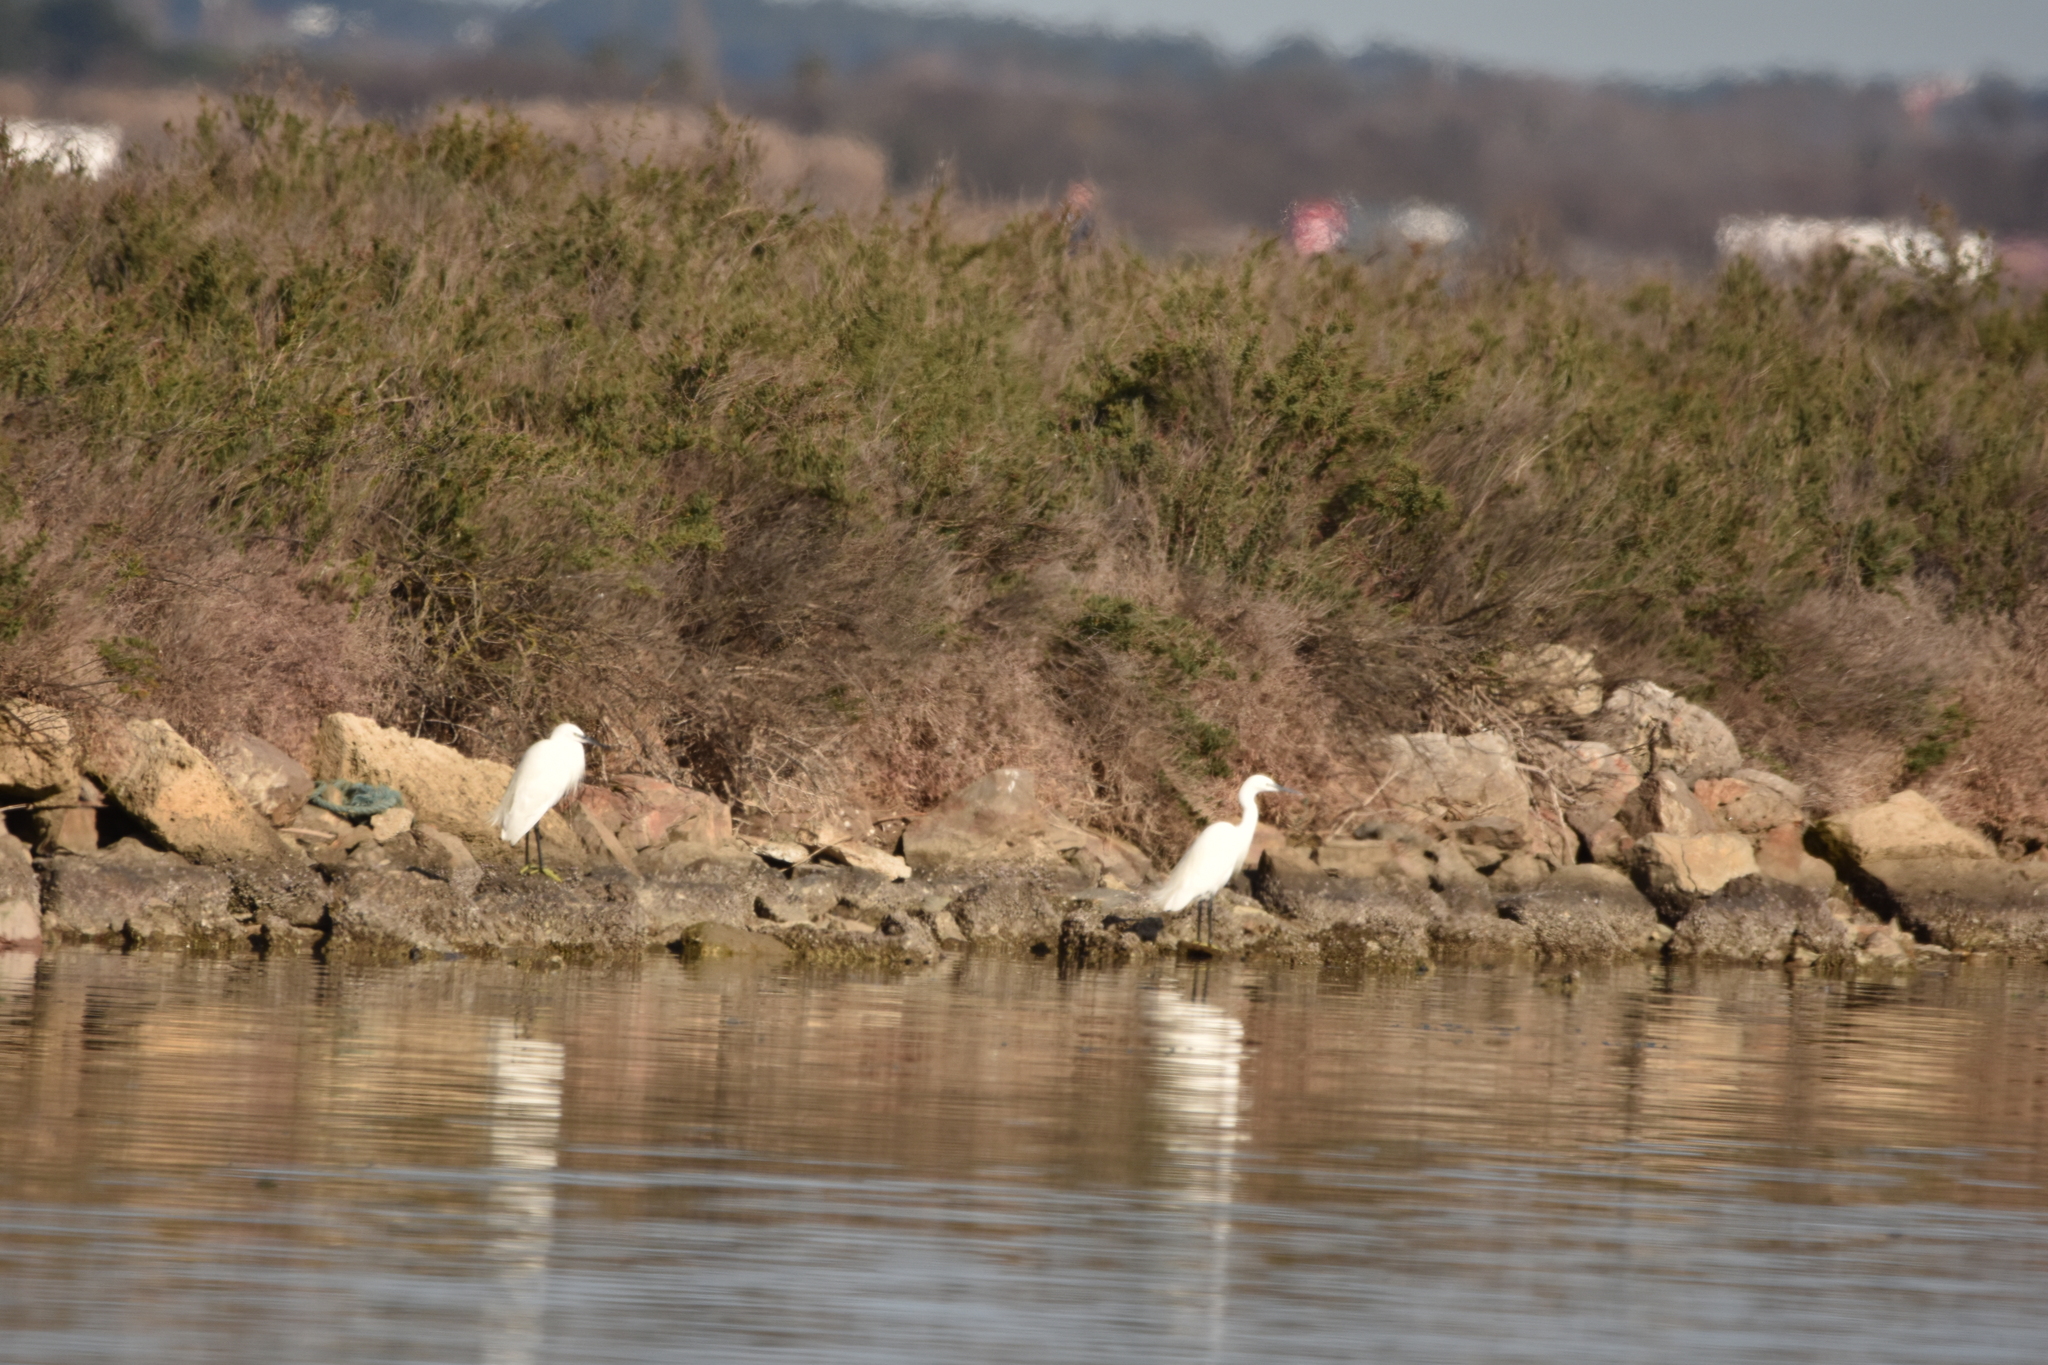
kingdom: Animalia
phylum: Chordata
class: Aves
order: Pelecaniformes
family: Ardeidae
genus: Egretta
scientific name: Egretta garzetta
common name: Little egret
